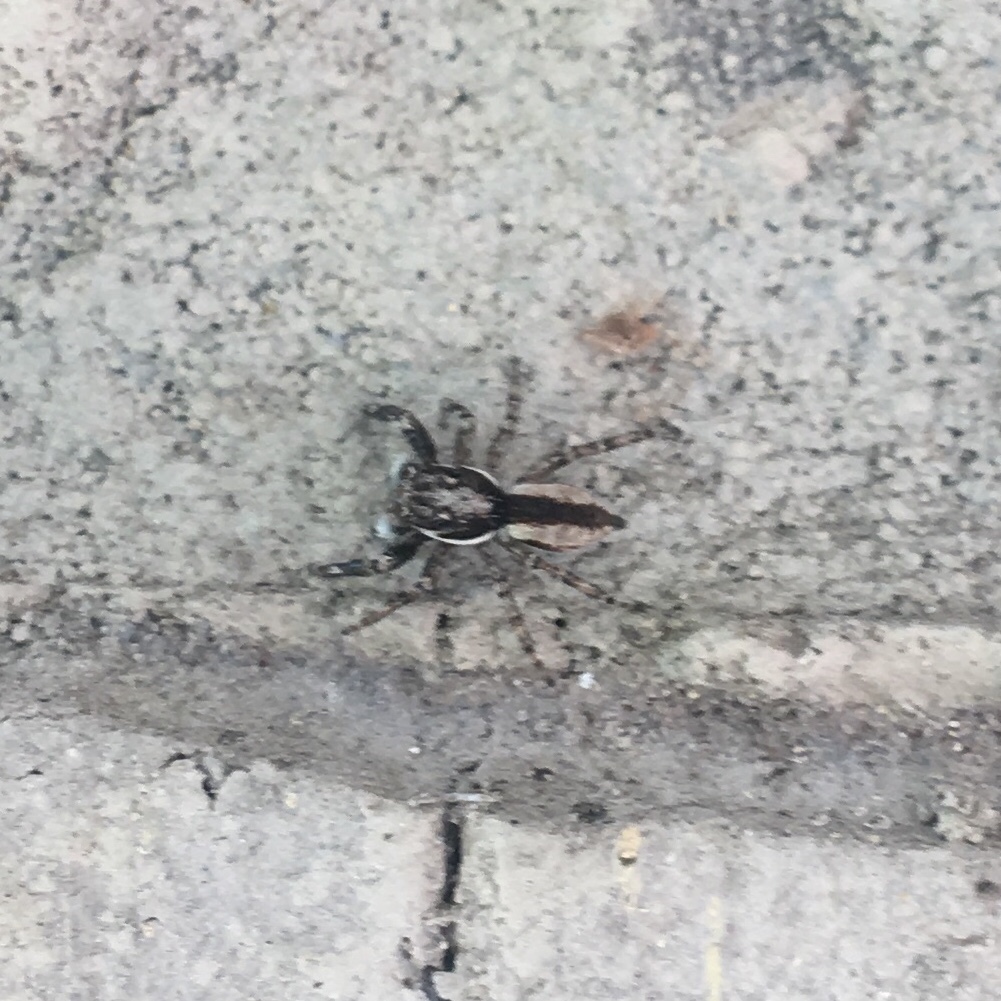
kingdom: Animalia
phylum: Arthropoda
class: Arachnida
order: Araneae
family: Salticidae
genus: Menemerus
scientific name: Menemerus bivittatus
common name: Gray wall jumper
